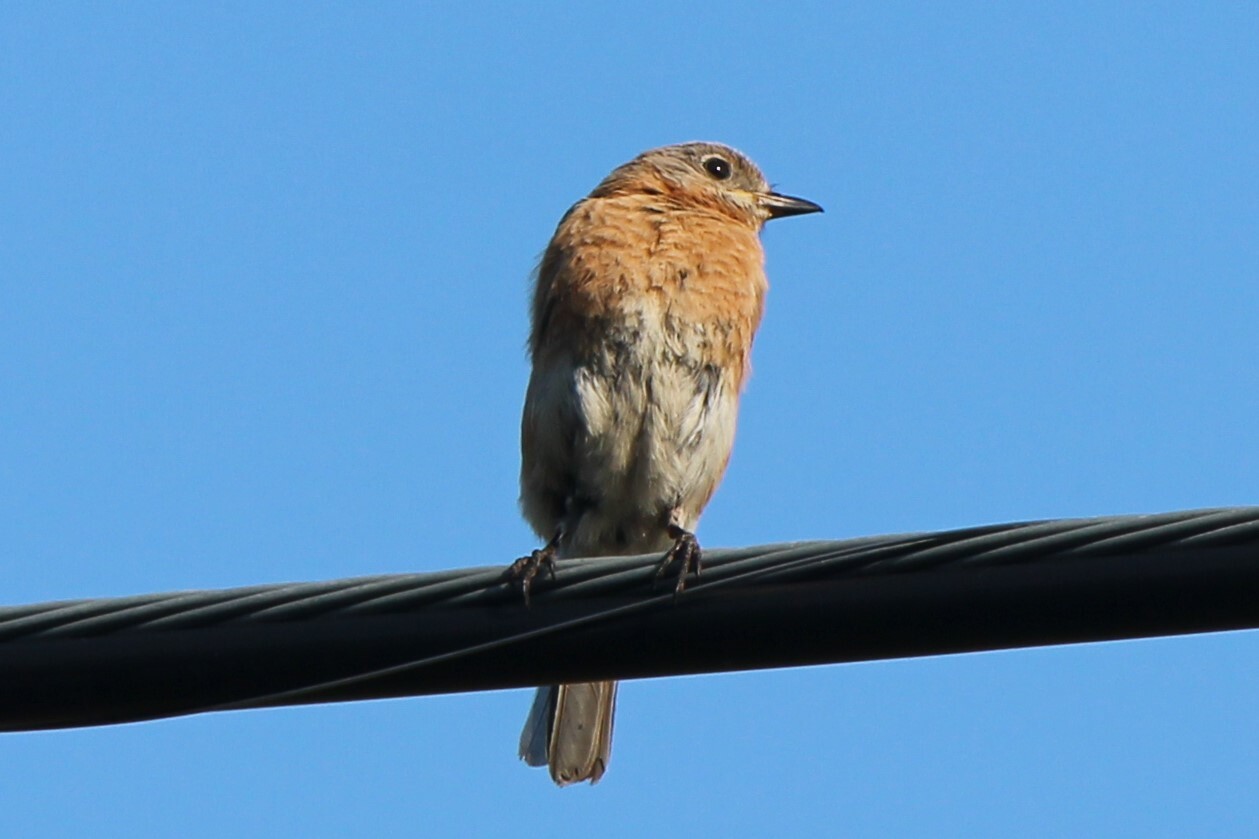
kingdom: Animalia
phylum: Chordata
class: Aves
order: Passeriformes
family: Turdidae
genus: Sialia
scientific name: Sialia sialis
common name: Eastern bluebird
